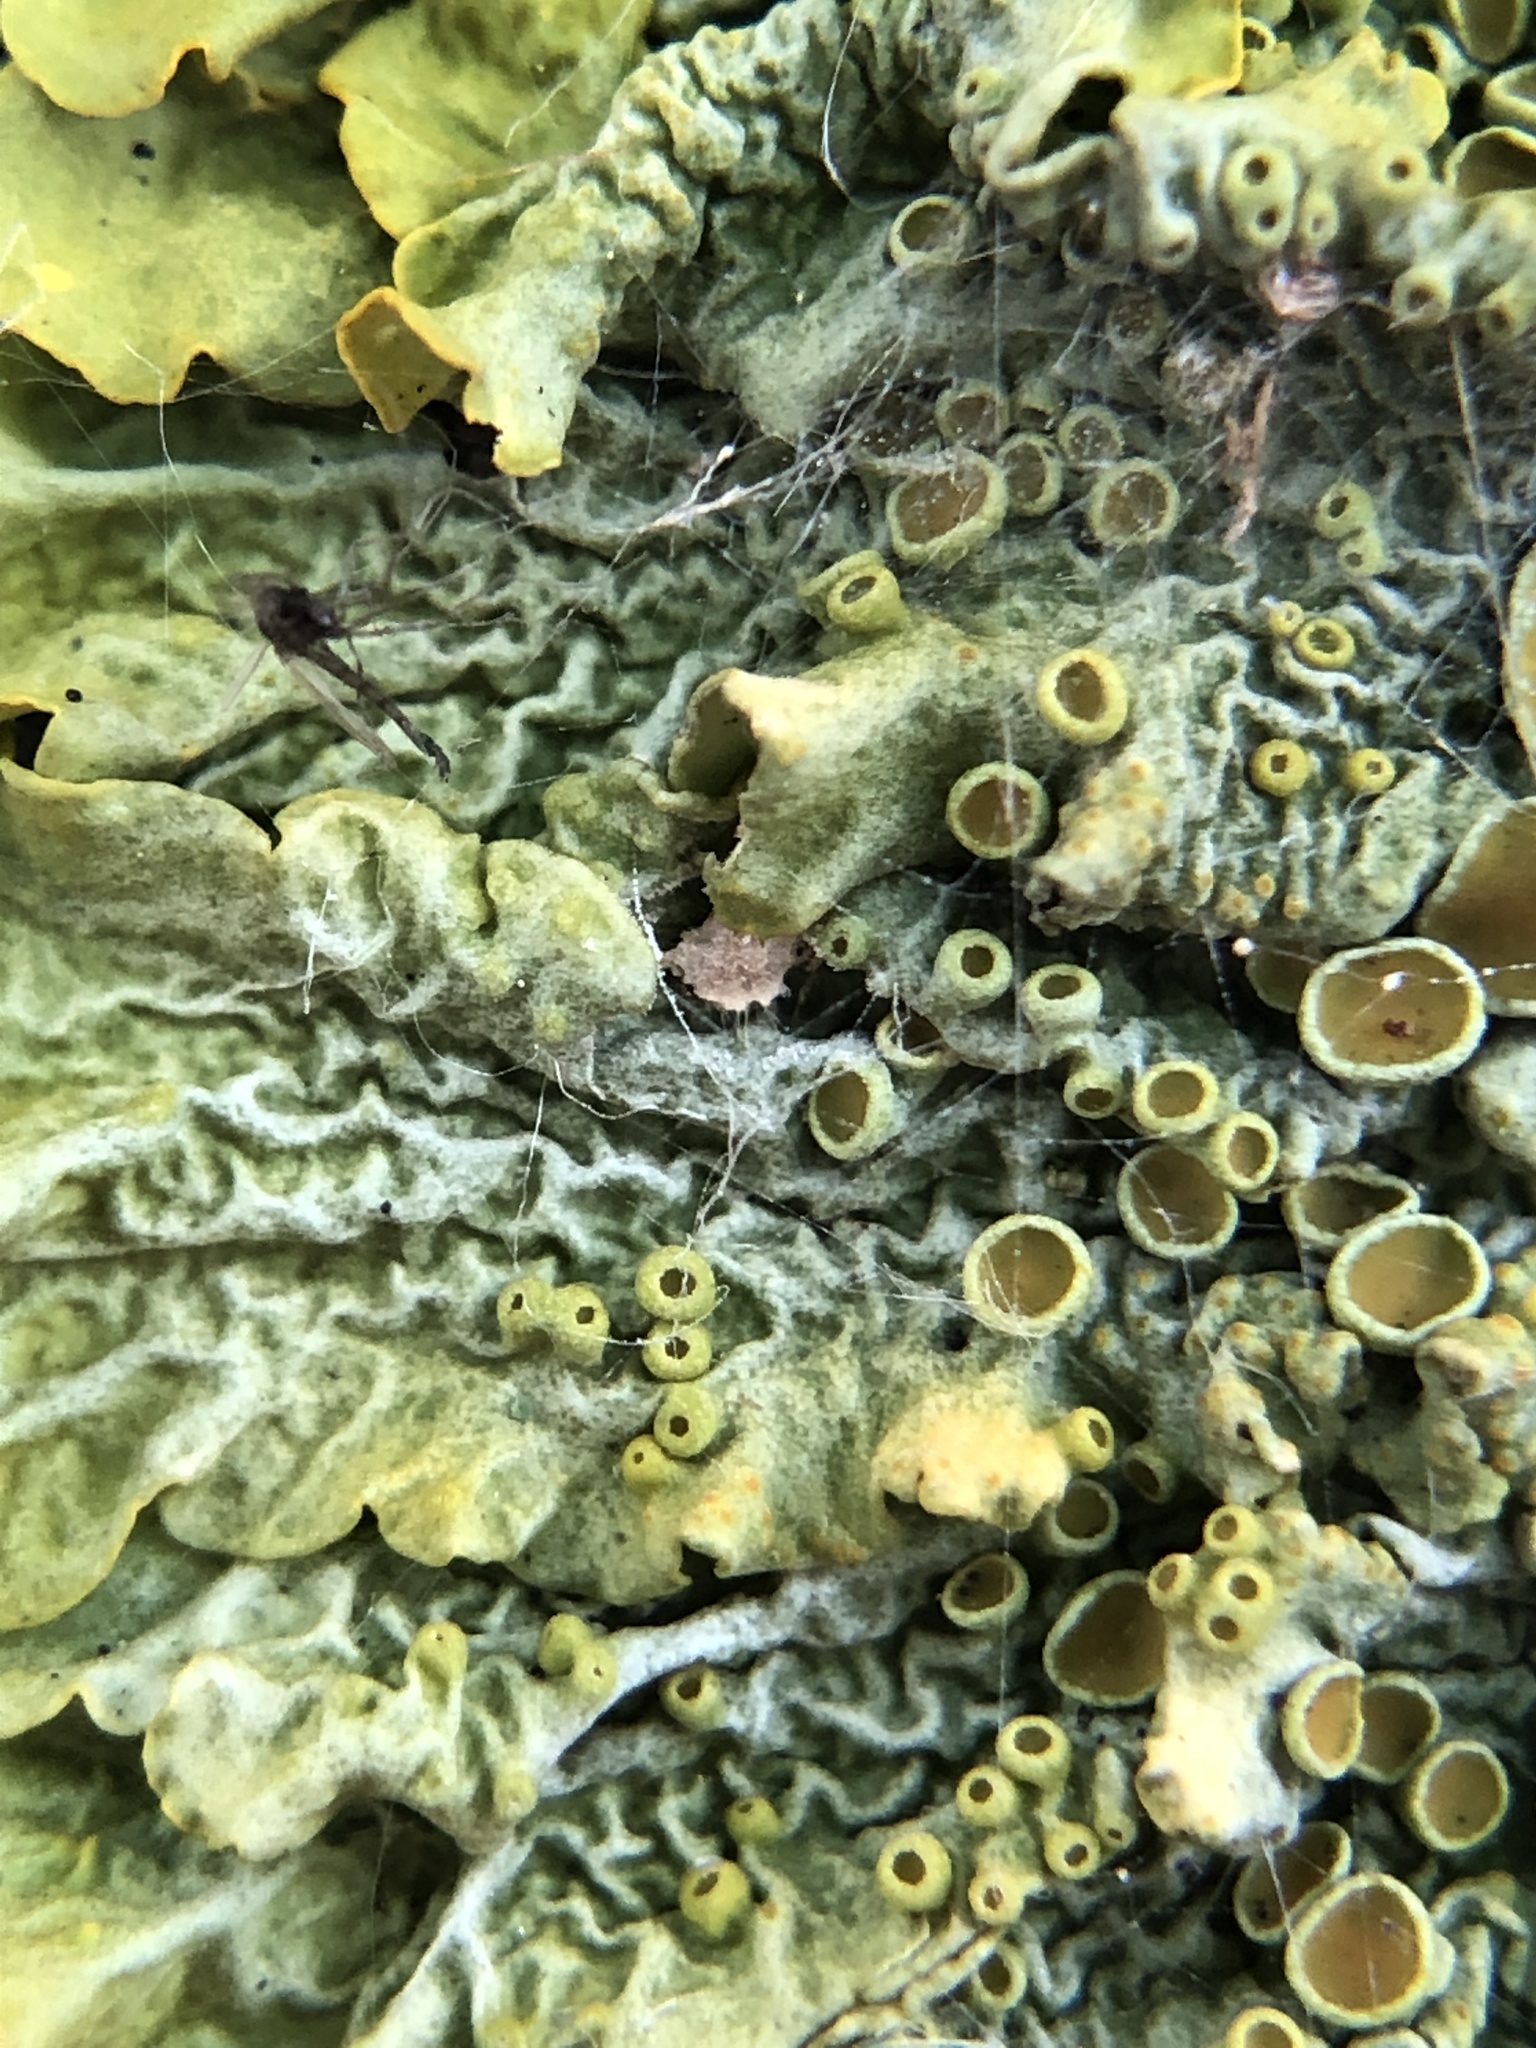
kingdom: Fungi
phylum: Ascomycota
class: Lecanoromycetes
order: Teloschistales
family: Teloschistaceae
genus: Xanthoria
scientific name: Xanthoria parietina
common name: Common orange lichen
